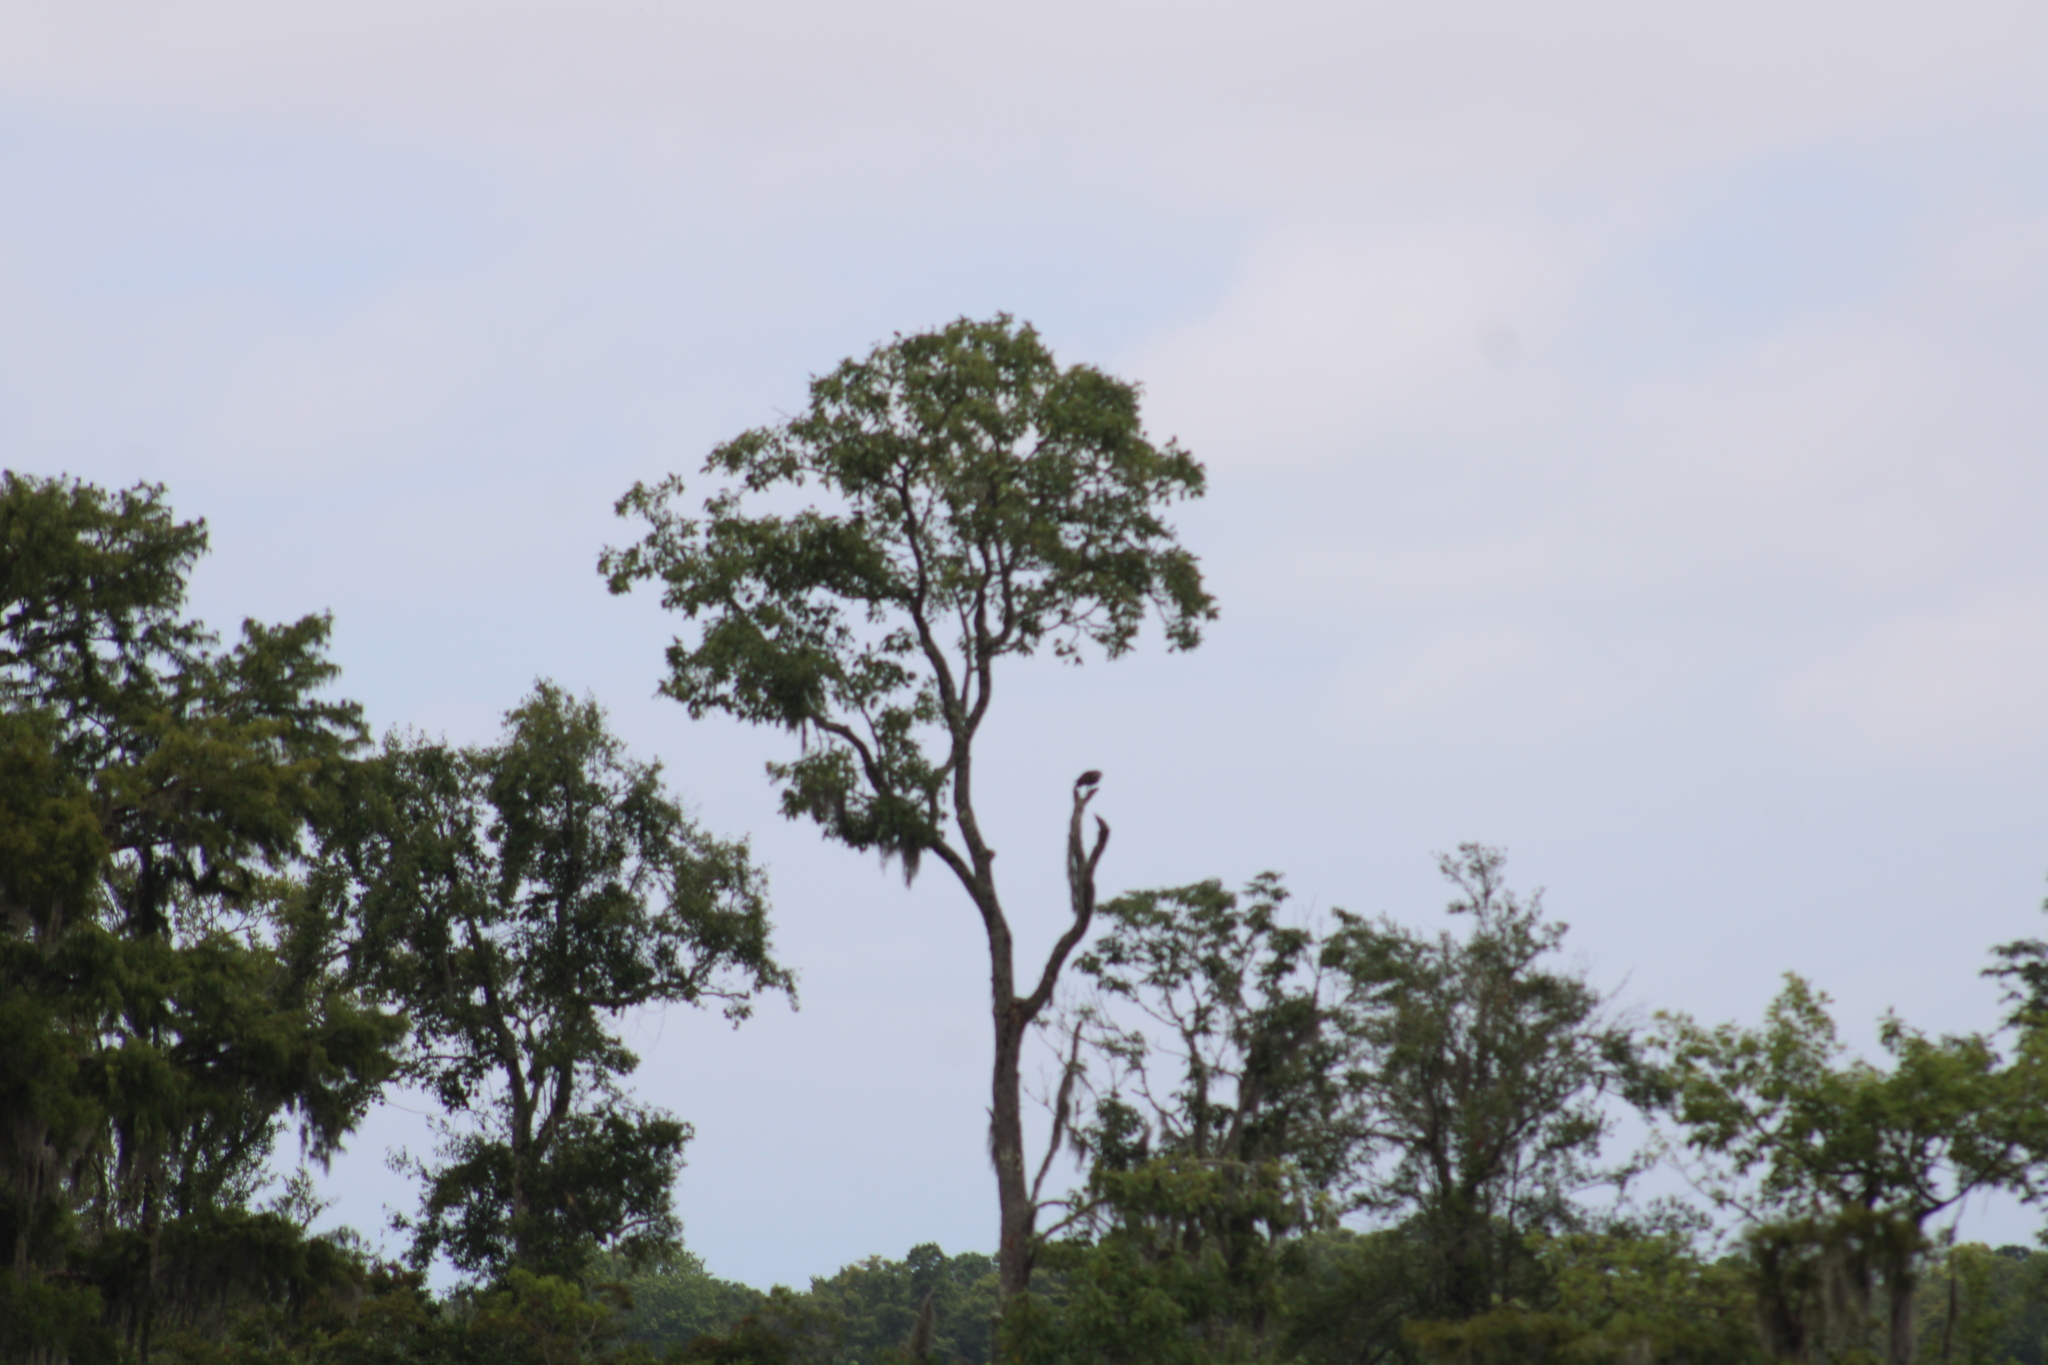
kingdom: Animalia
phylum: Chordata
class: Aves
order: Accipitriformes
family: Pandionidae
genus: Pandion
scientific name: Pandion haliaetus
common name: Osprey
